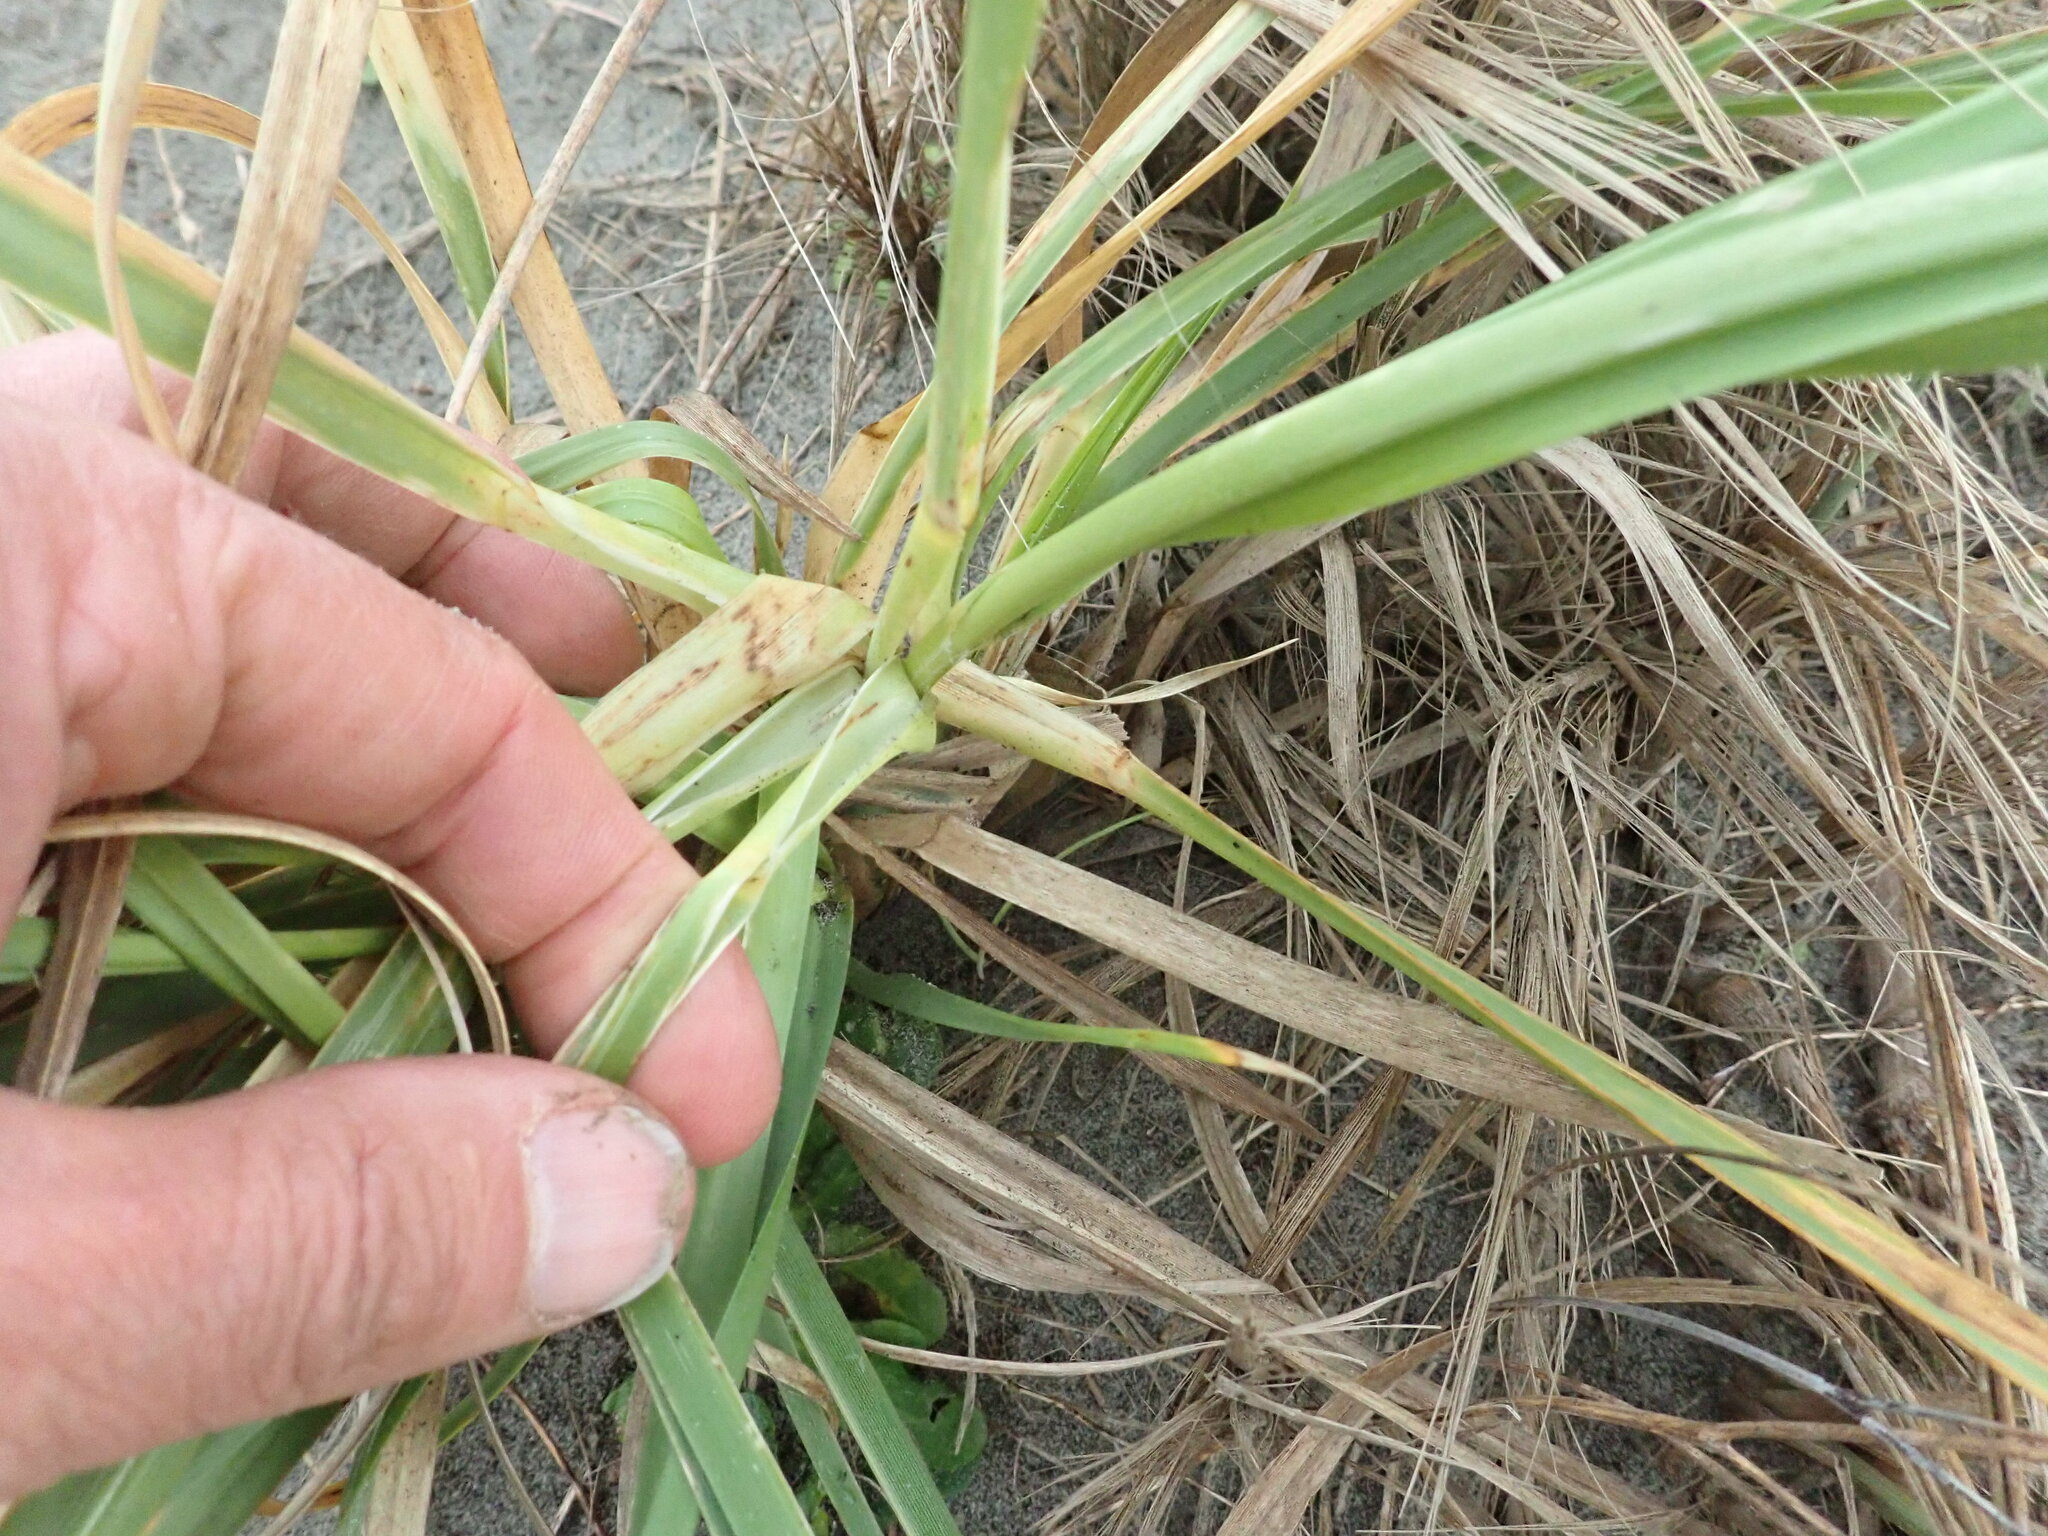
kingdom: Plantae
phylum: Tracheophyta
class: Liliopsida
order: Poales
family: Poaceae
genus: Cortaderia
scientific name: Cortaderia selloana
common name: Uruguayan pampas grass
